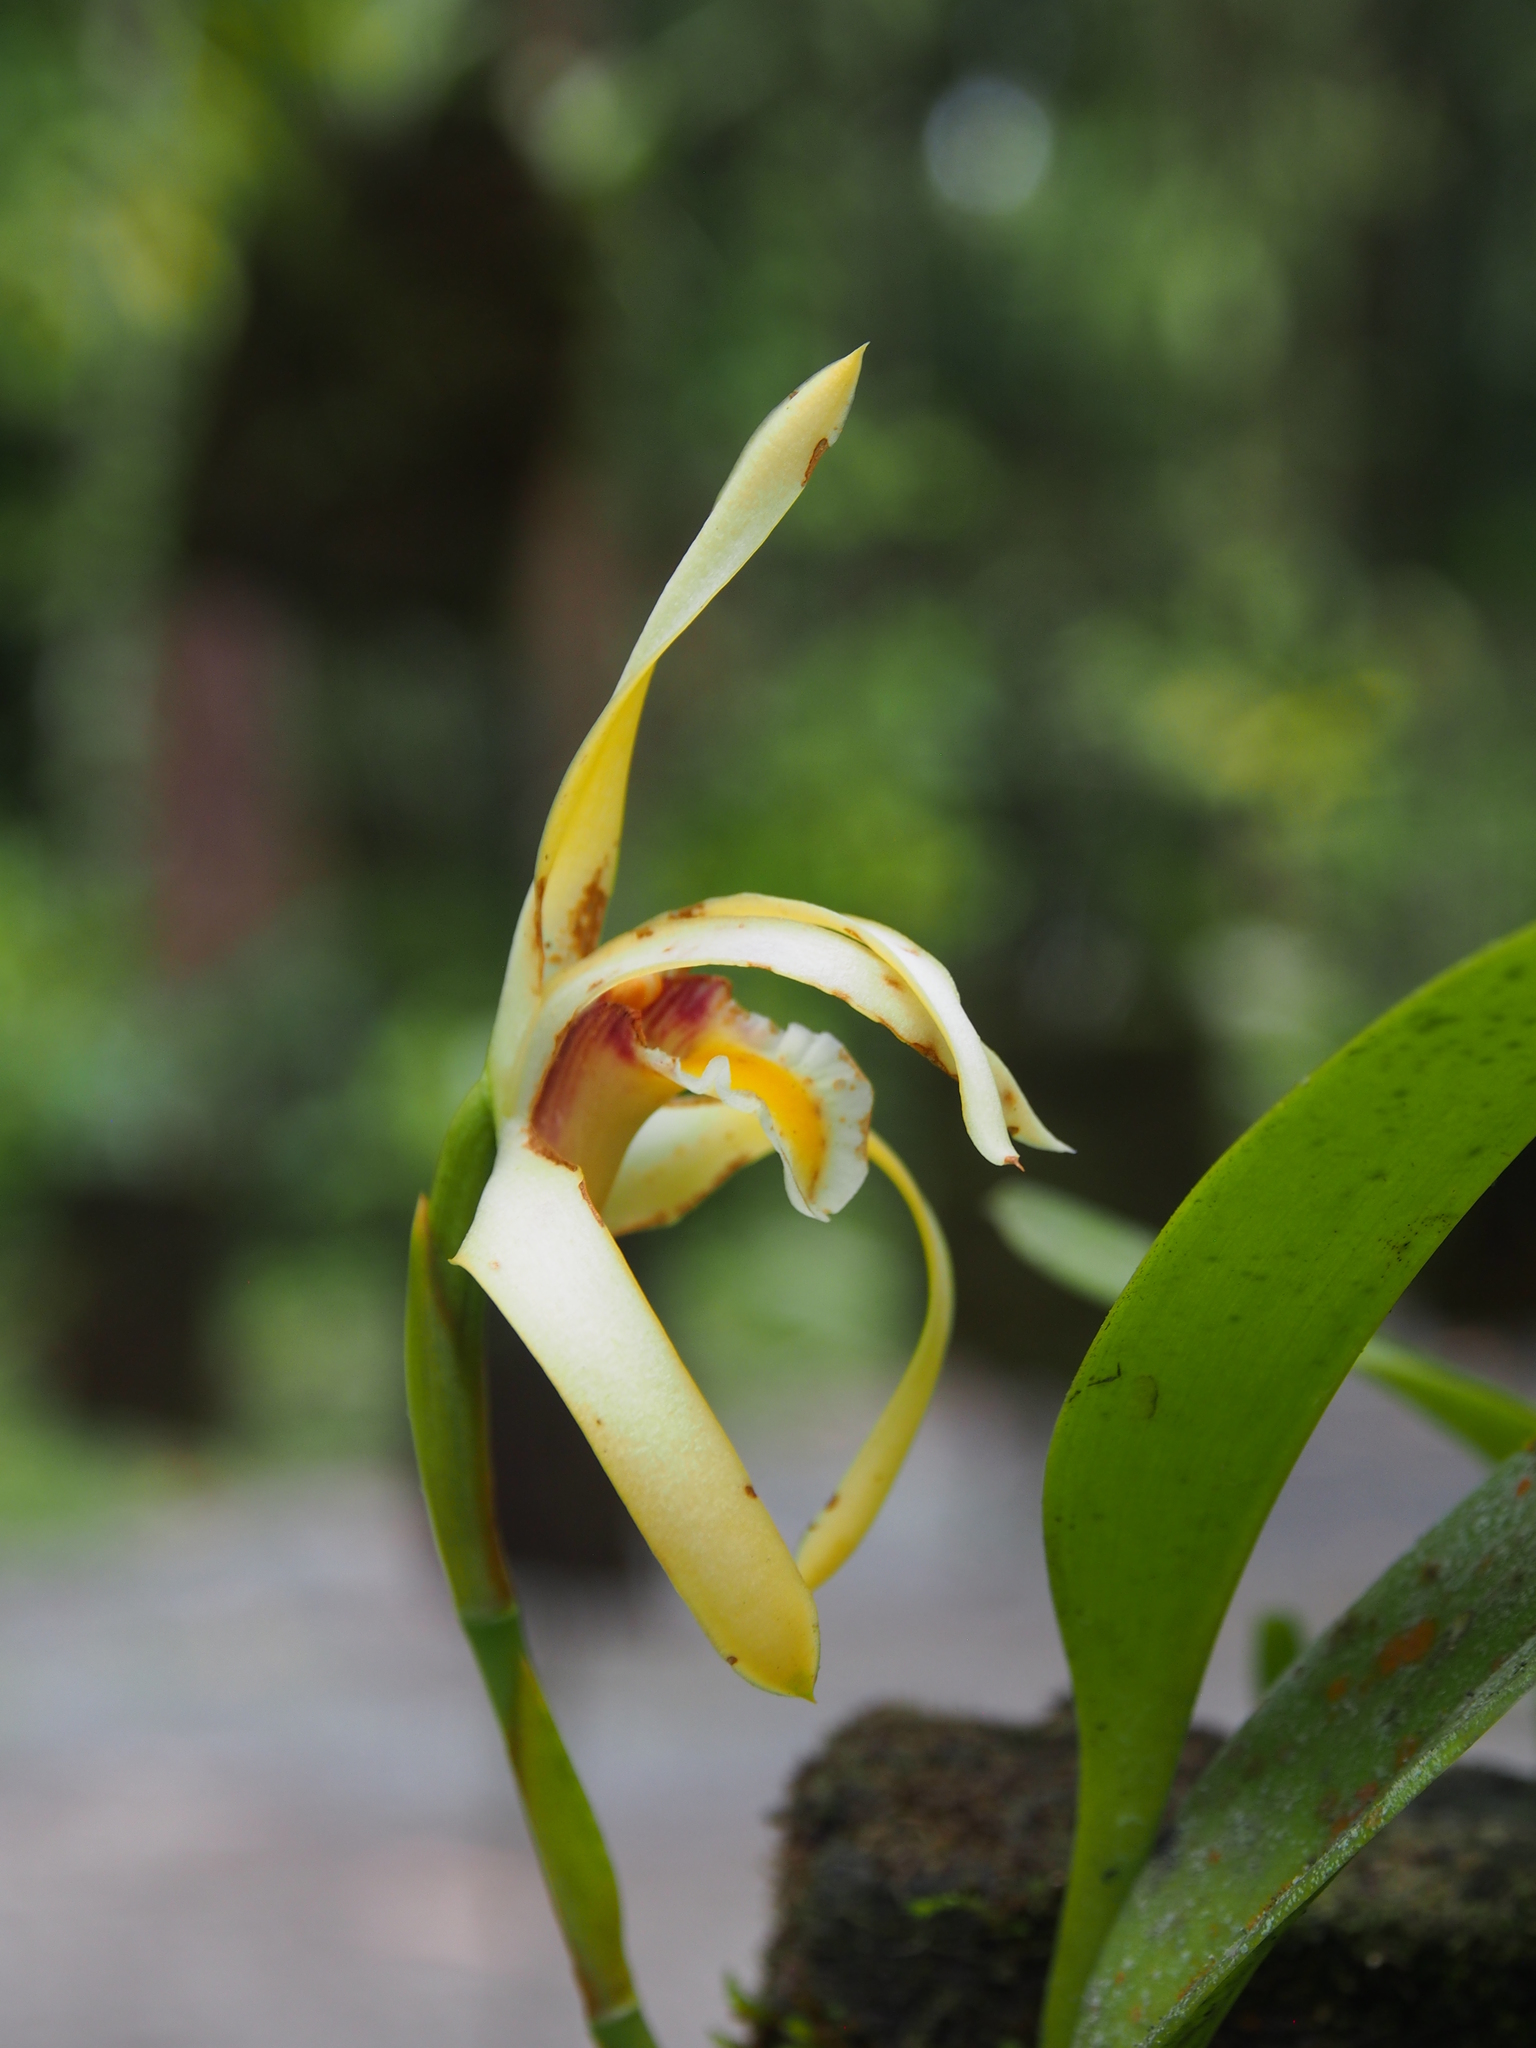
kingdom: Plantae
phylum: Tracheophyta
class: Liliopsida
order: Asparagales
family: Orchidaceae
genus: Maxillaria
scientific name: Maxillaria endresii
